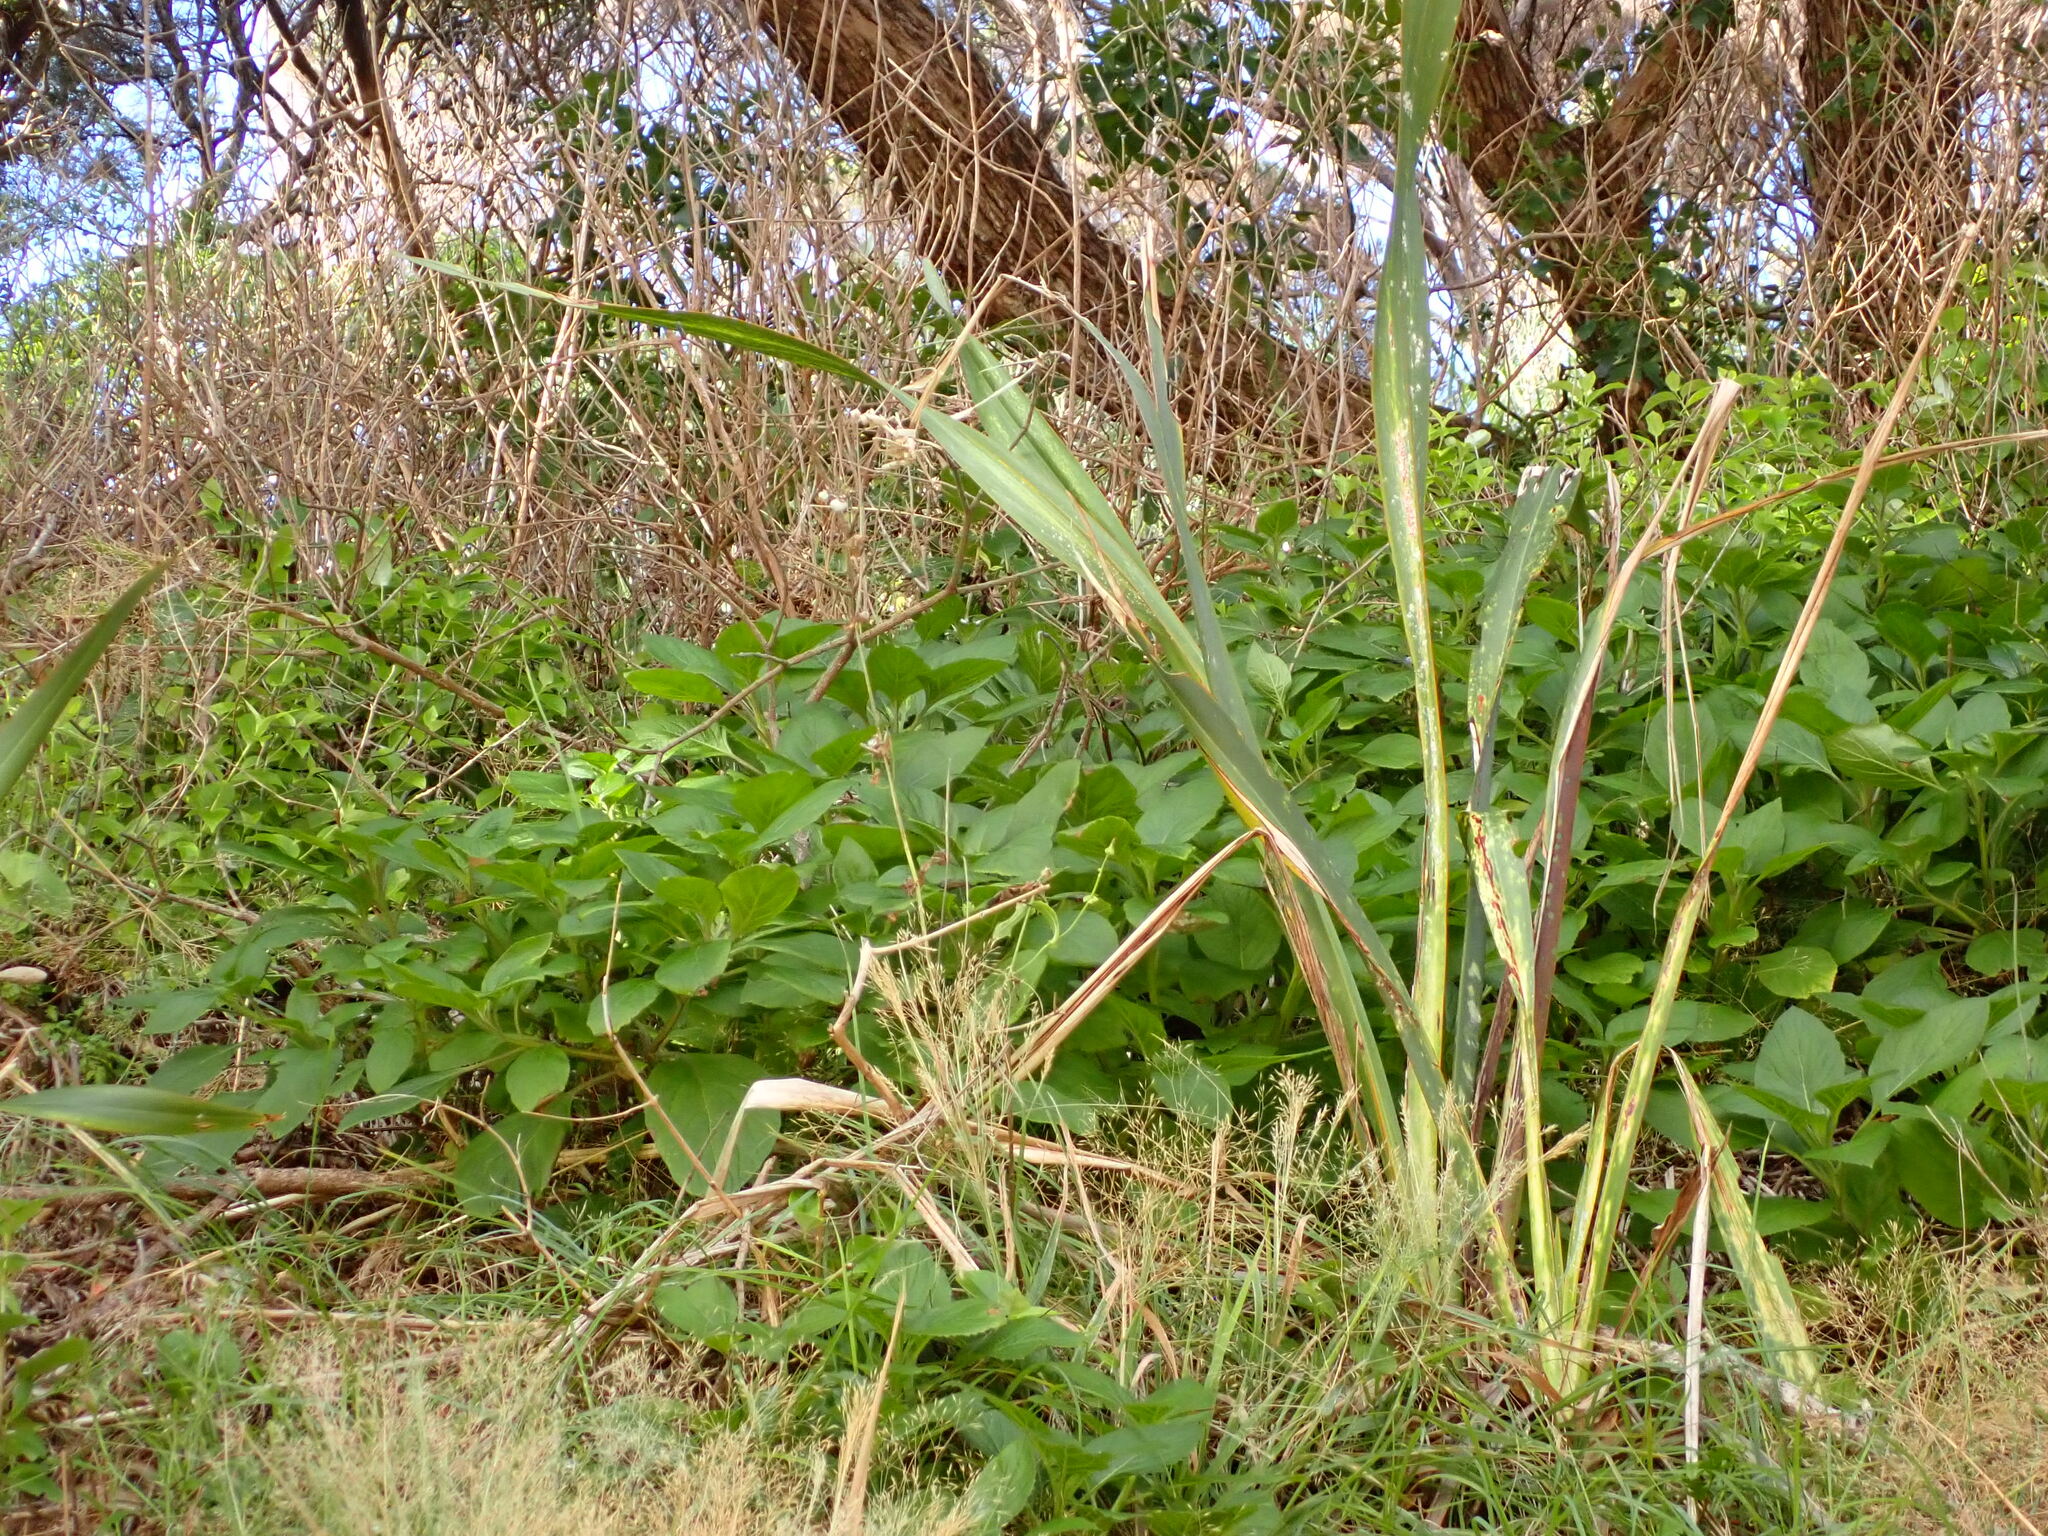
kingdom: Plantae
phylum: Tracheophyta
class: Magnoliopsida
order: Asterales
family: Campanulaceae
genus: Lobelia
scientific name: Lobelia physaloides
